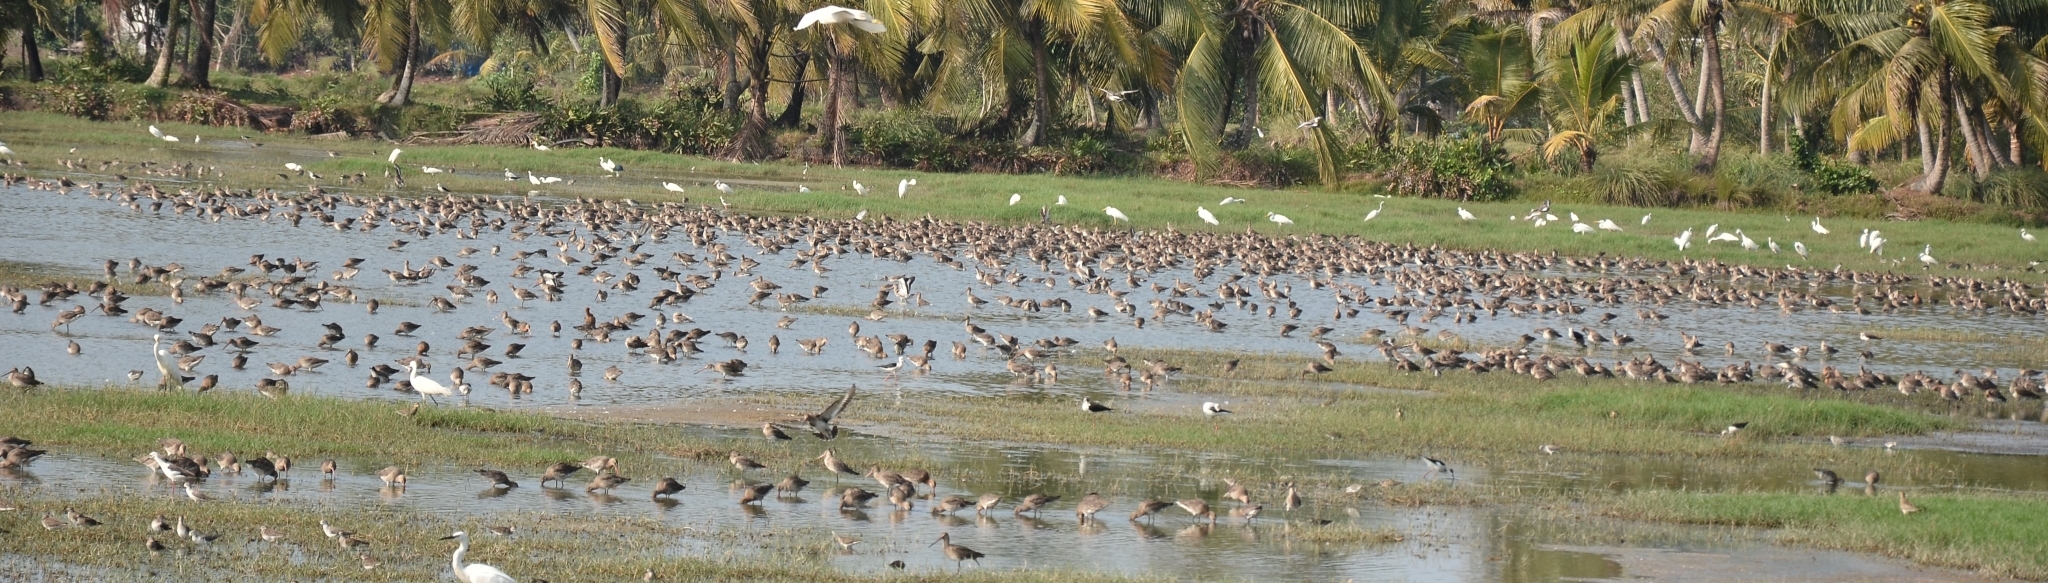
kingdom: Animalia
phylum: Chordata
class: Aves
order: Charadriiformes
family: Scolopacidae
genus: Limosa
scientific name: Limosa limosa
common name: Black-tailed godwit
